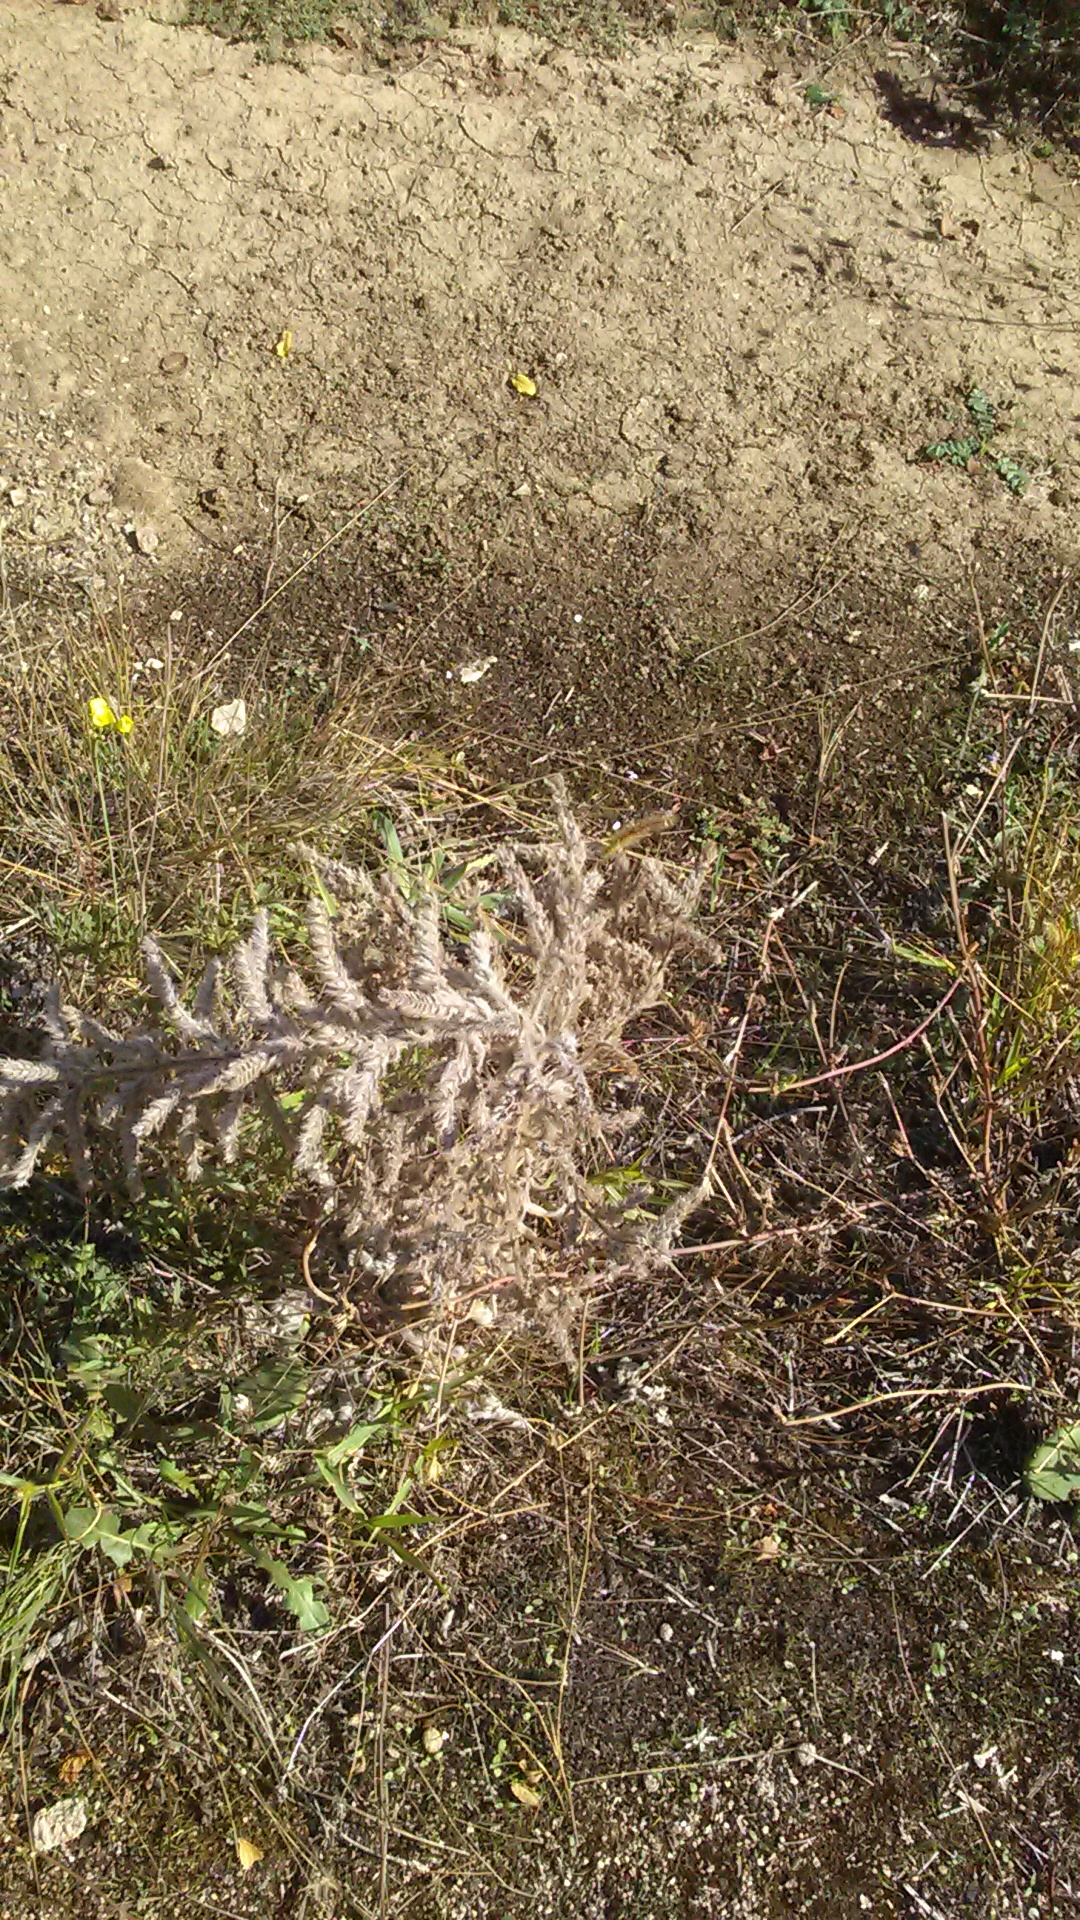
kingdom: Plantae
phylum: Tracheophyta
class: Magnoliopsida
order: Boraginales
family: Boraginaceae
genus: Echium
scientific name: Echium italicum
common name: Italian viper's bugloss
